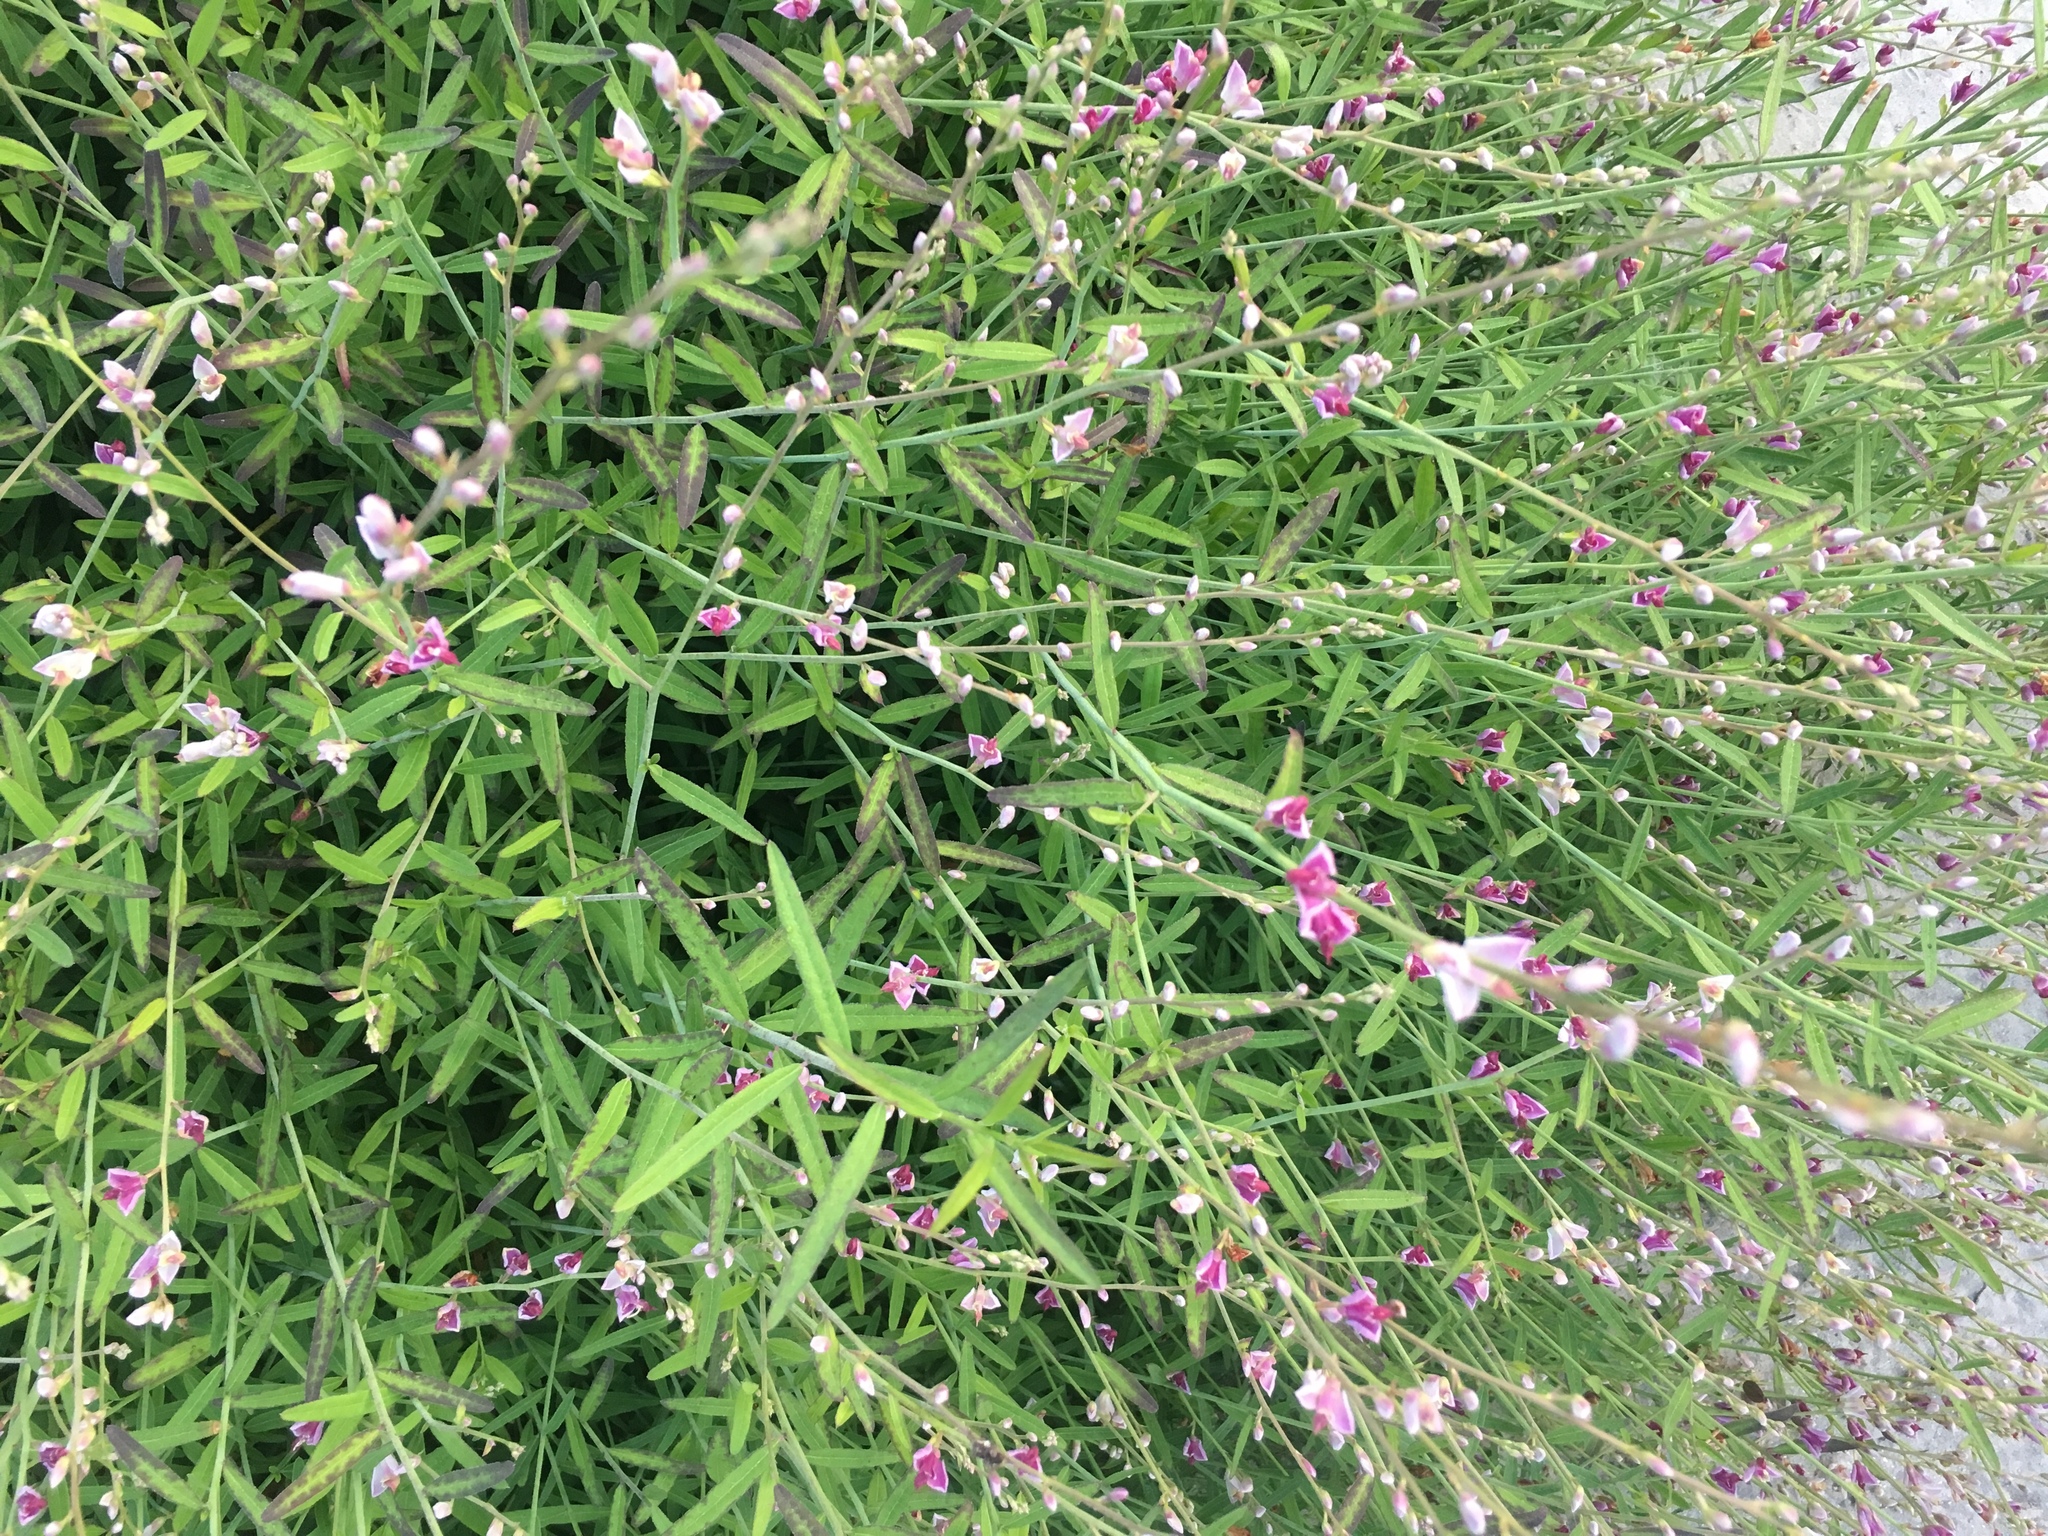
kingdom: Plantae
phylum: Tracheophyta
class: Magnoliopsida
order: Fabales
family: Polygalaceae
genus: Rhinotropis
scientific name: Rhinotropis cornuta
